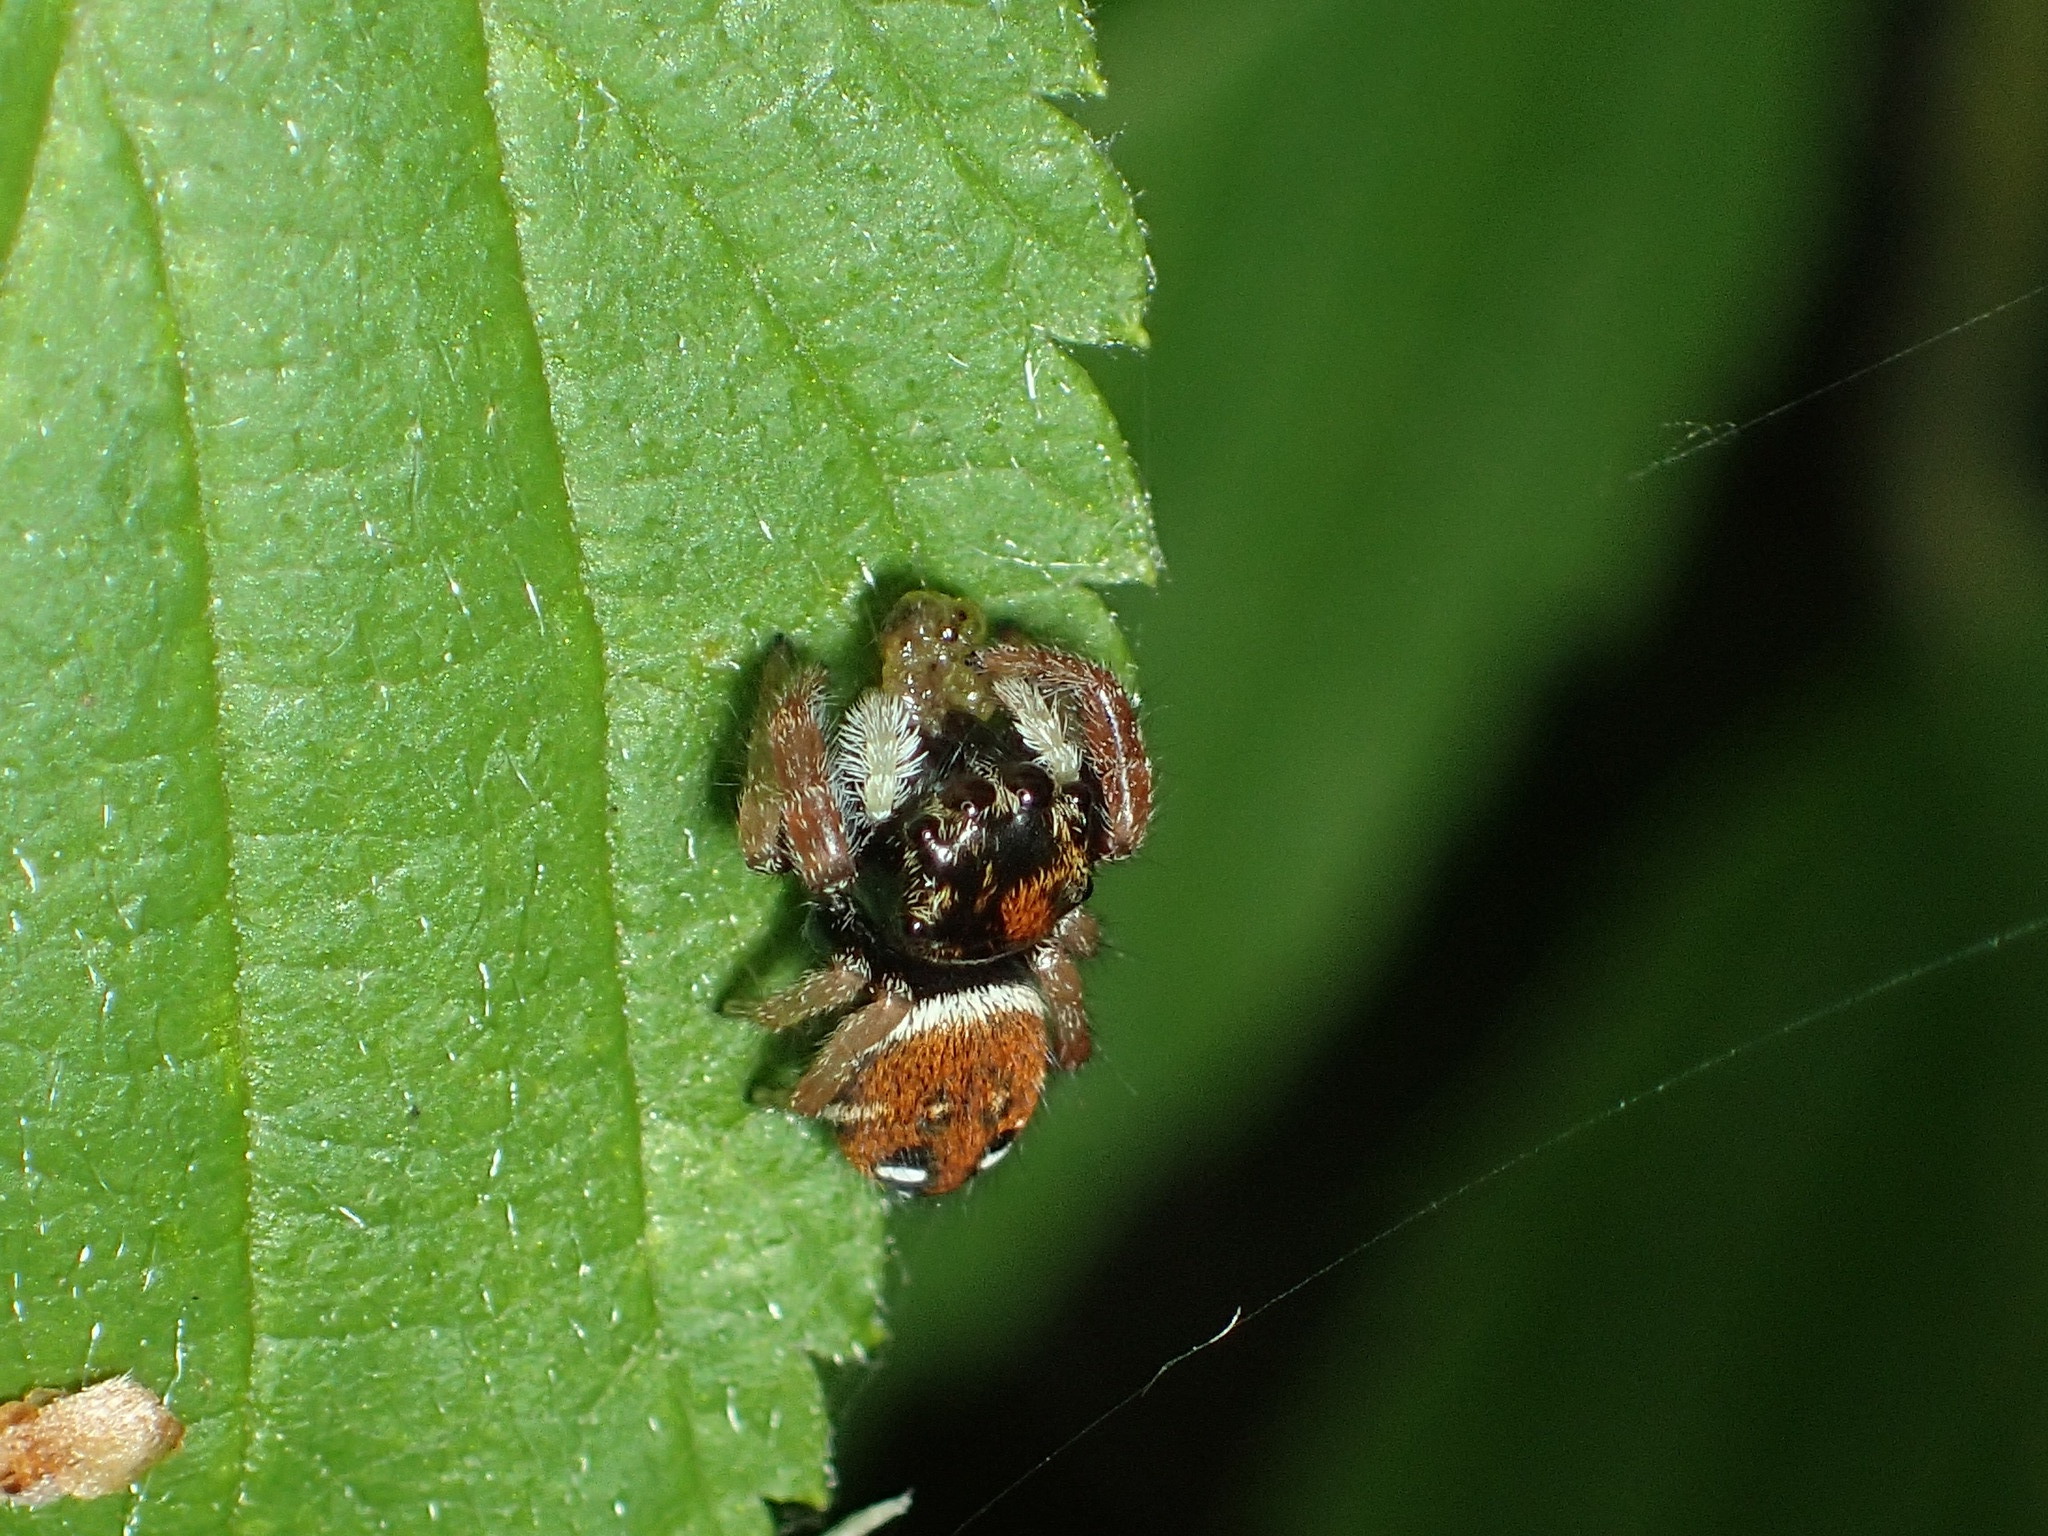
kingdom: Animalia
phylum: Arthropoda
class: Arachnida
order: Araneae
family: Salticidae
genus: Phidippus
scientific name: Phidippus whitmani
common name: Whitman's jumping spider
